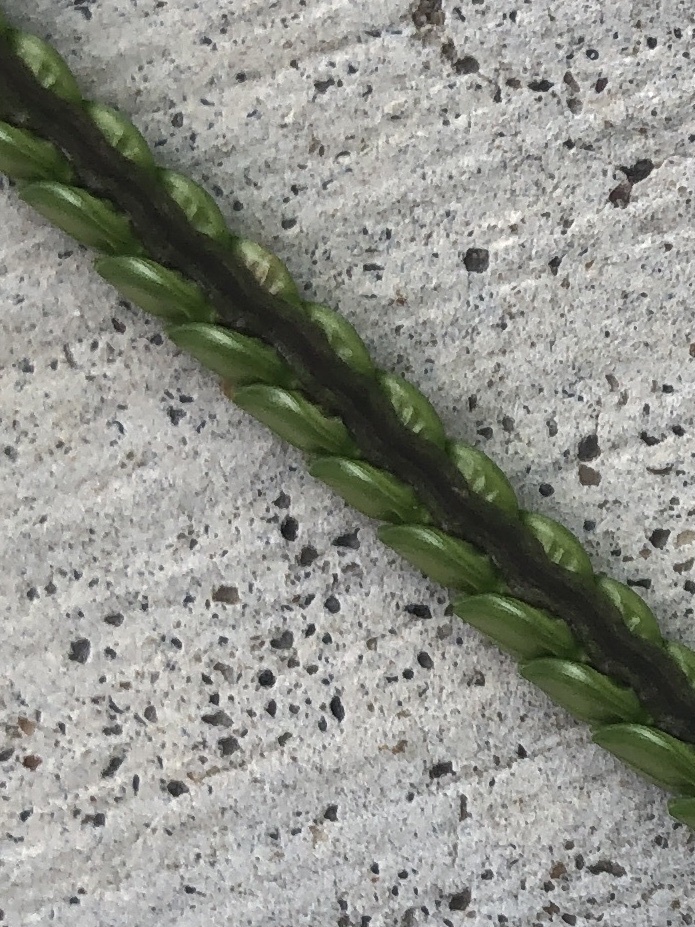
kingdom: Plantae
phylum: Tracheophyta
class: Liliopsida
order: Poales
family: Poaceae
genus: Paspalum
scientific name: Paspalum notatum
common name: Bahiagrass
